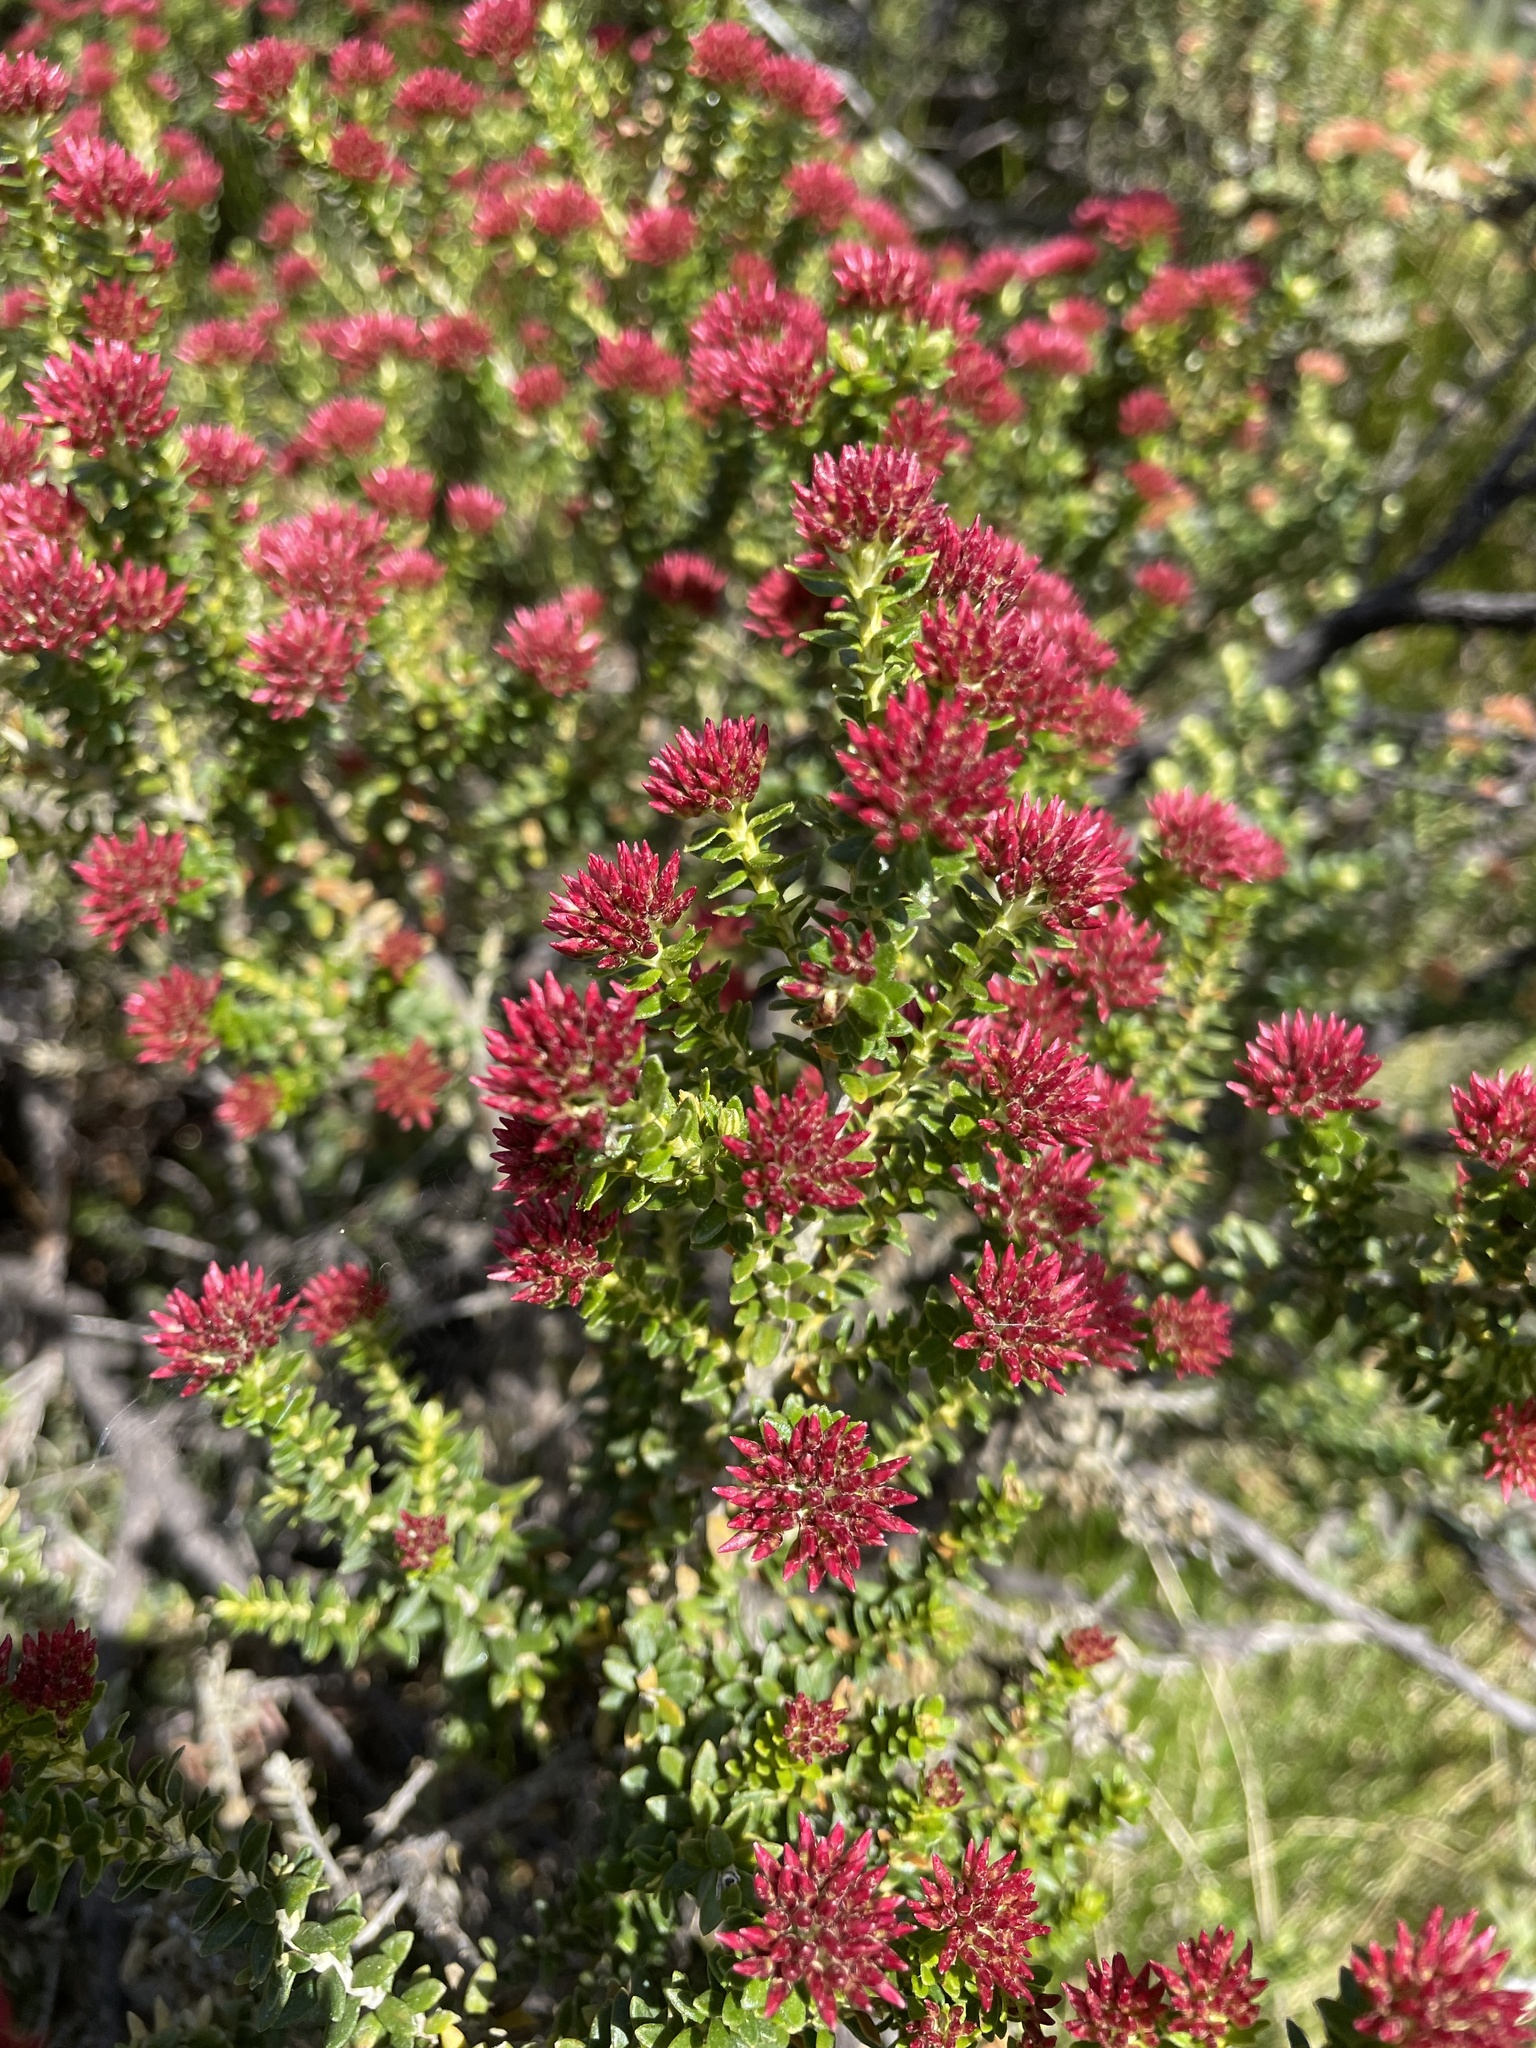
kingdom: Plantae
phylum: Tracheophyta
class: Magnoliopsida
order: Asterales
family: Asteraceae
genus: Ozothamnus
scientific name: Ozothamnus alpinus
